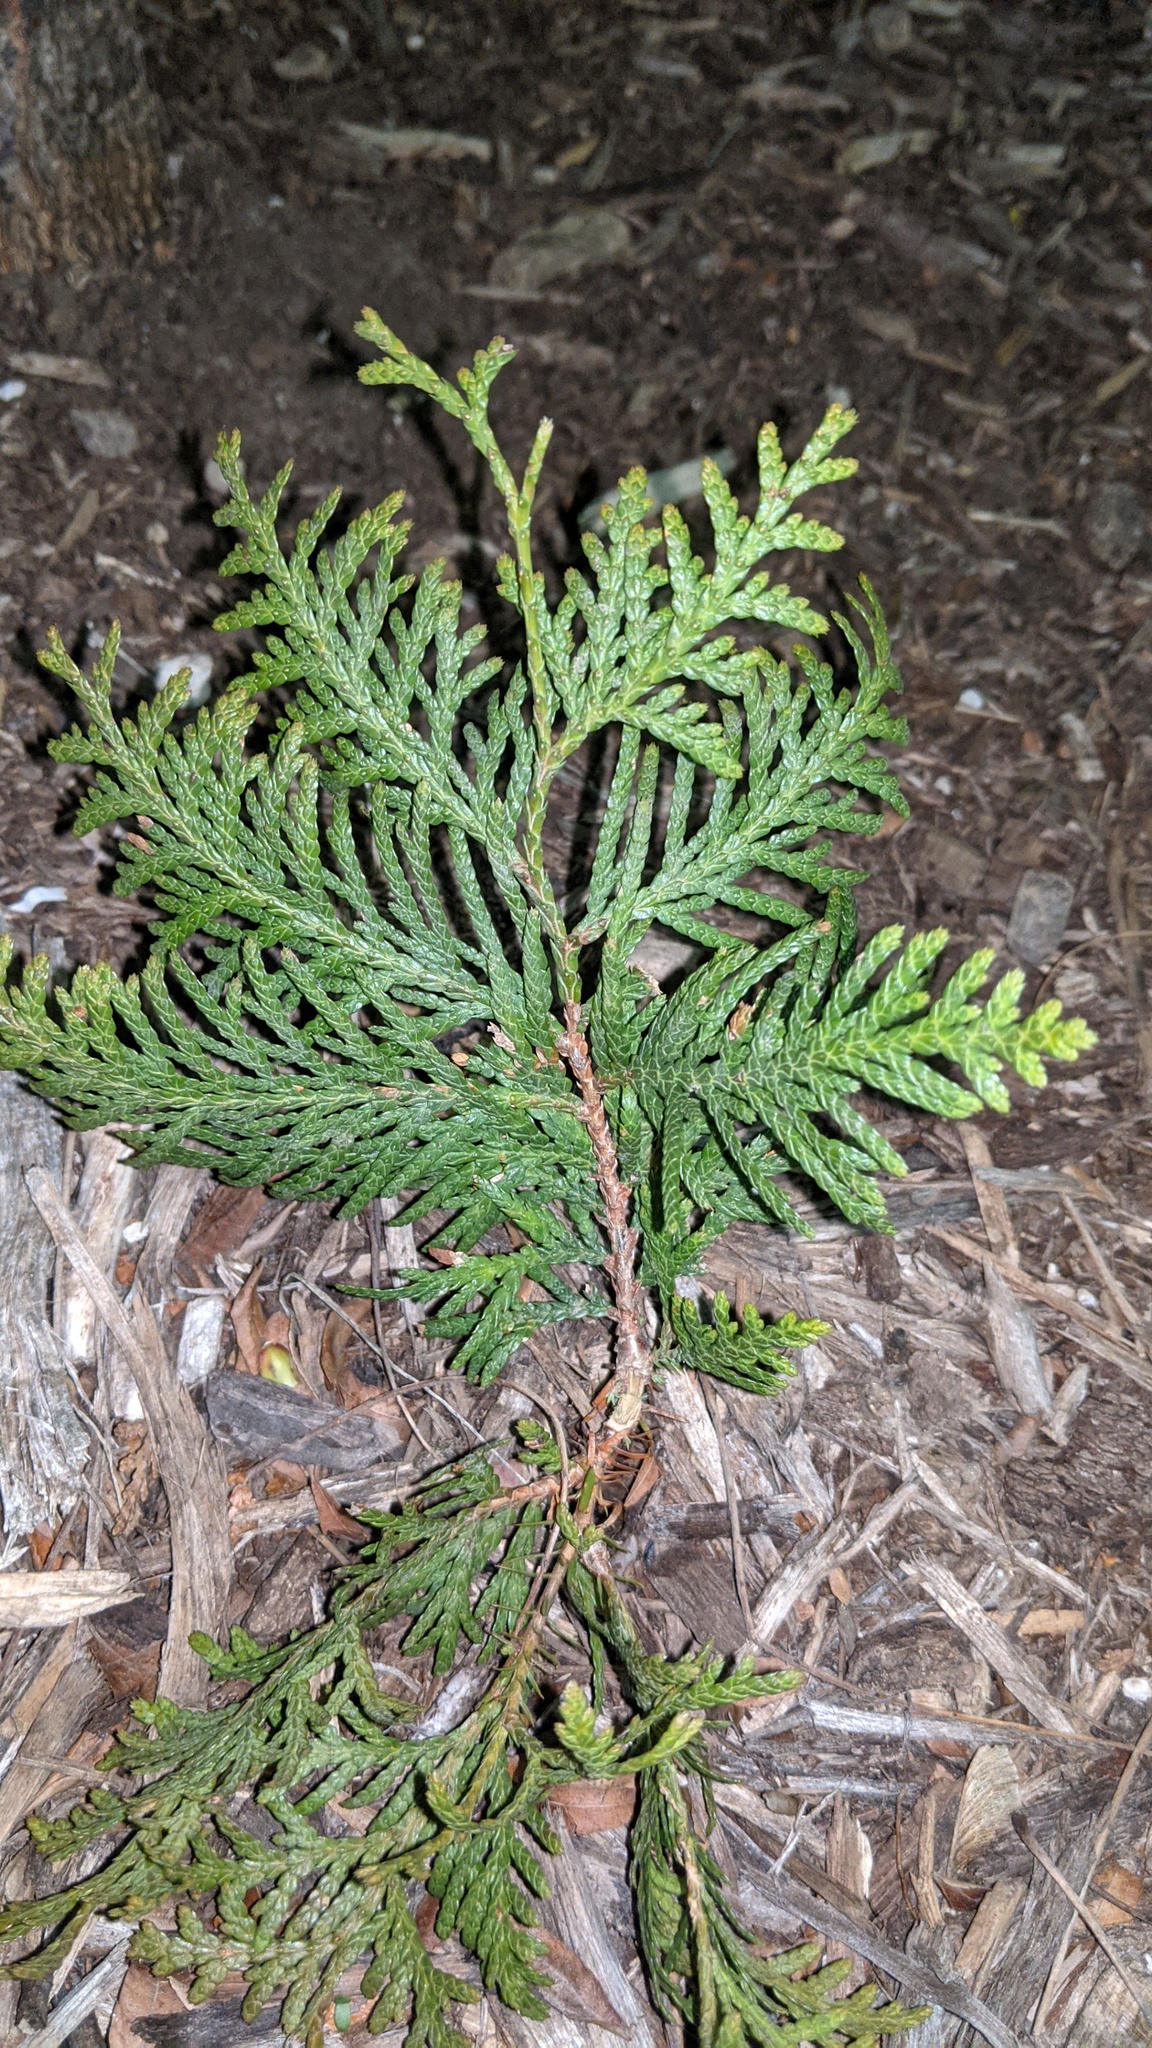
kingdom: Plantae
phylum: Tracheophyta
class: Pinopsida
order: Pinales
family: Cupressaceae
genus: Thuja
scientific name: Thuja occidentalis
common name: Northern white-cedar
